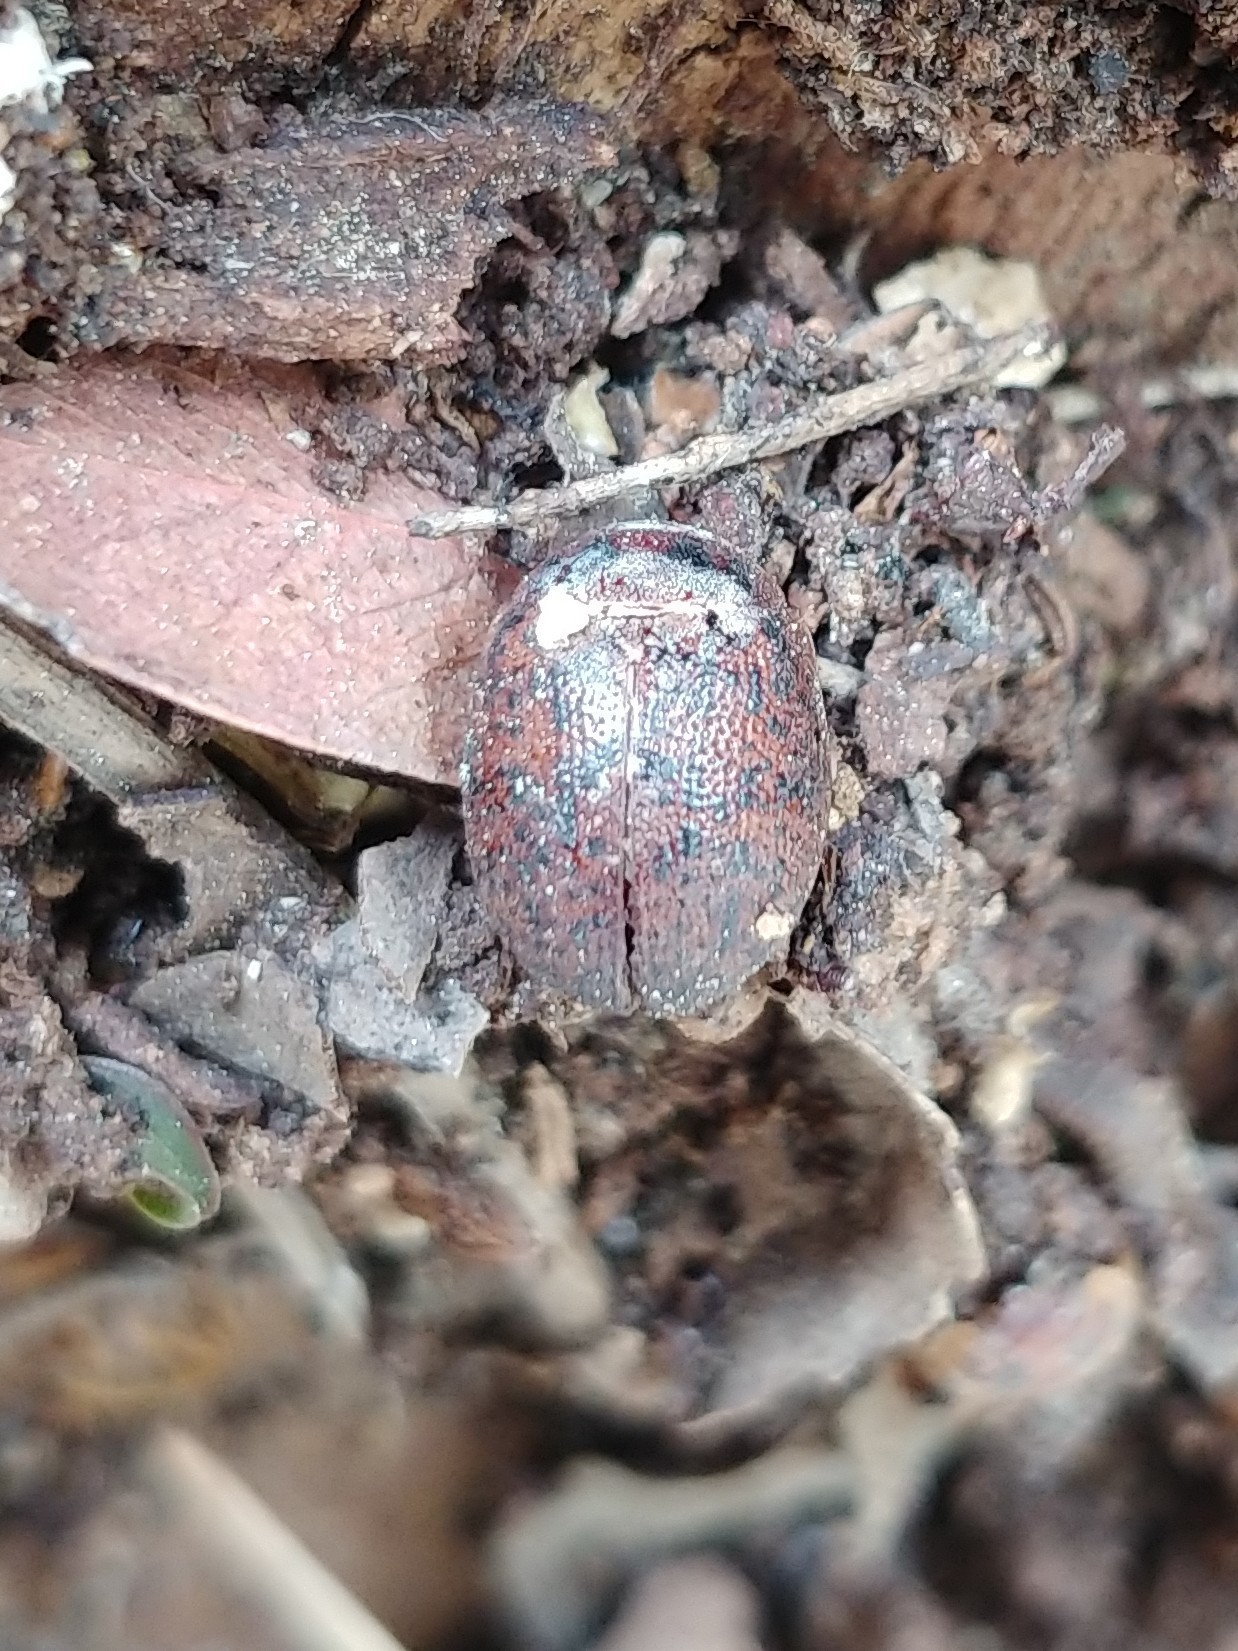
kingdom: Animalia
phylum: Arthropoda
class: Insecta
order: Coleoptera
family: Chrysomelidae
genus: Trachymela
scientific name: Trachymela sloanei
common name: Australian tortoise beetle
